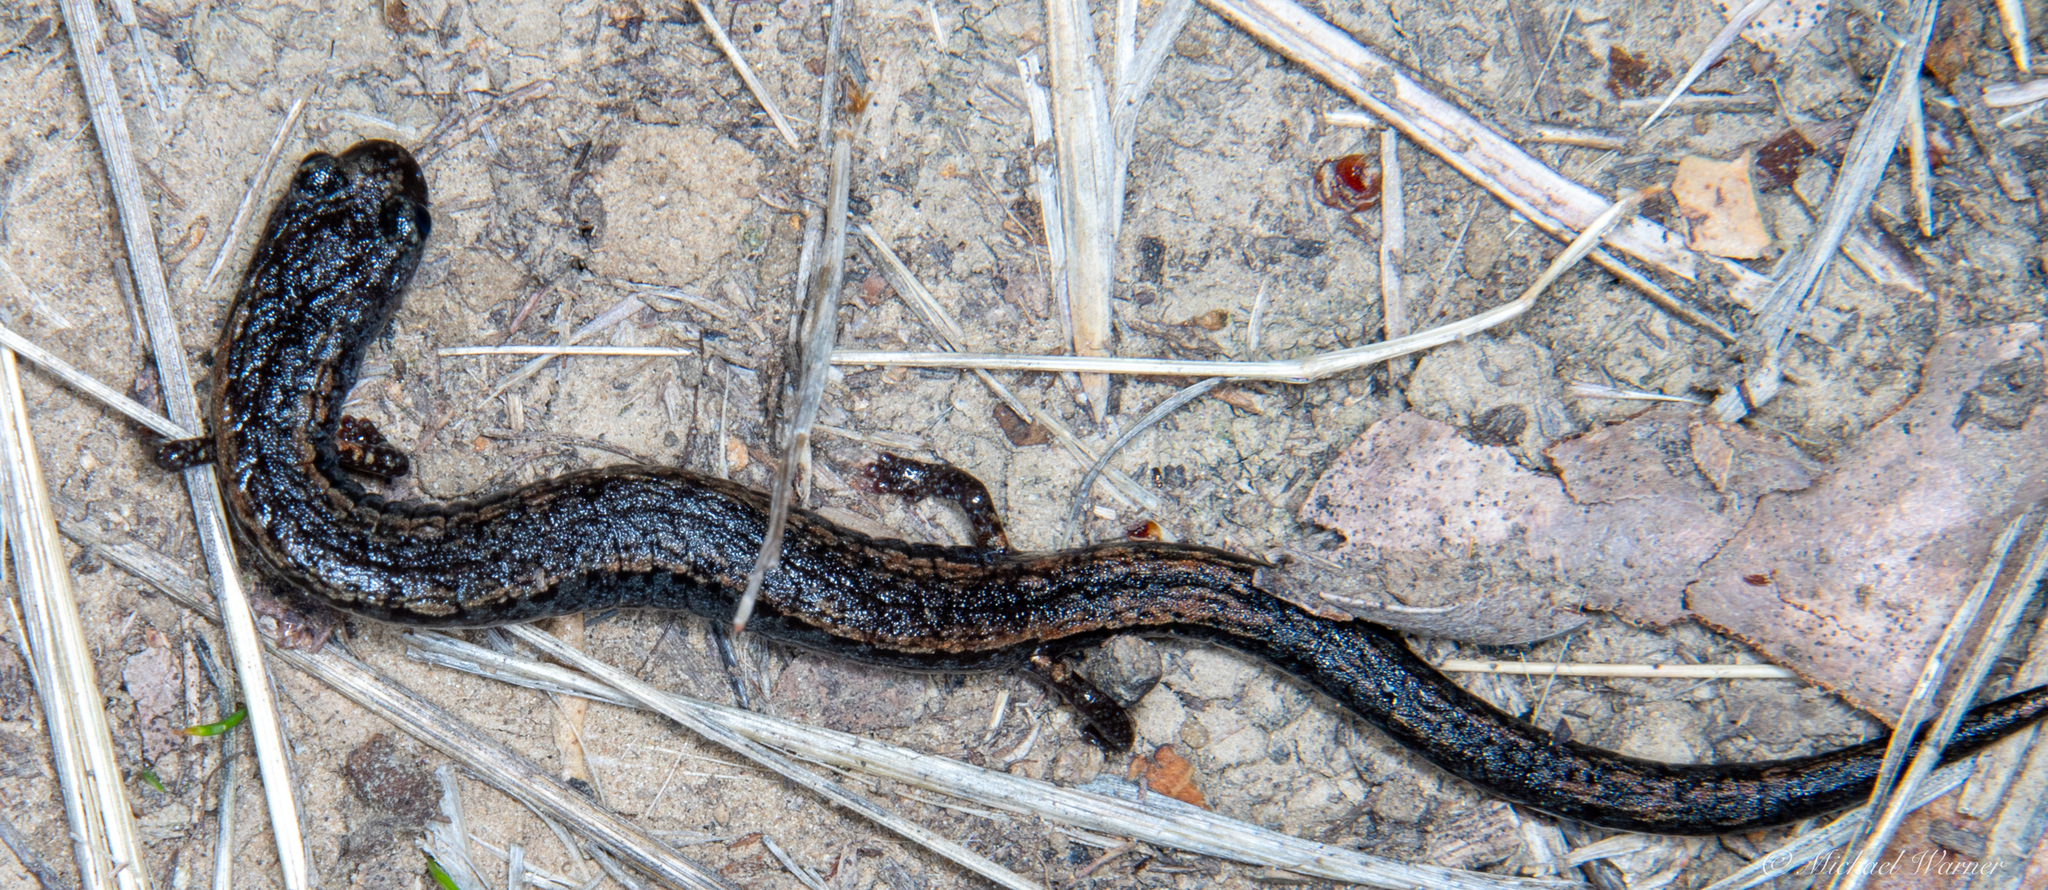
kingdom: Animalia
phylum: Chordata
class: Amphibia
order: Caudata
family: Plethodontidae
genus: Batrachoseps
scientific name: Batrachoseps attenuatus
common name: California slender salamander
